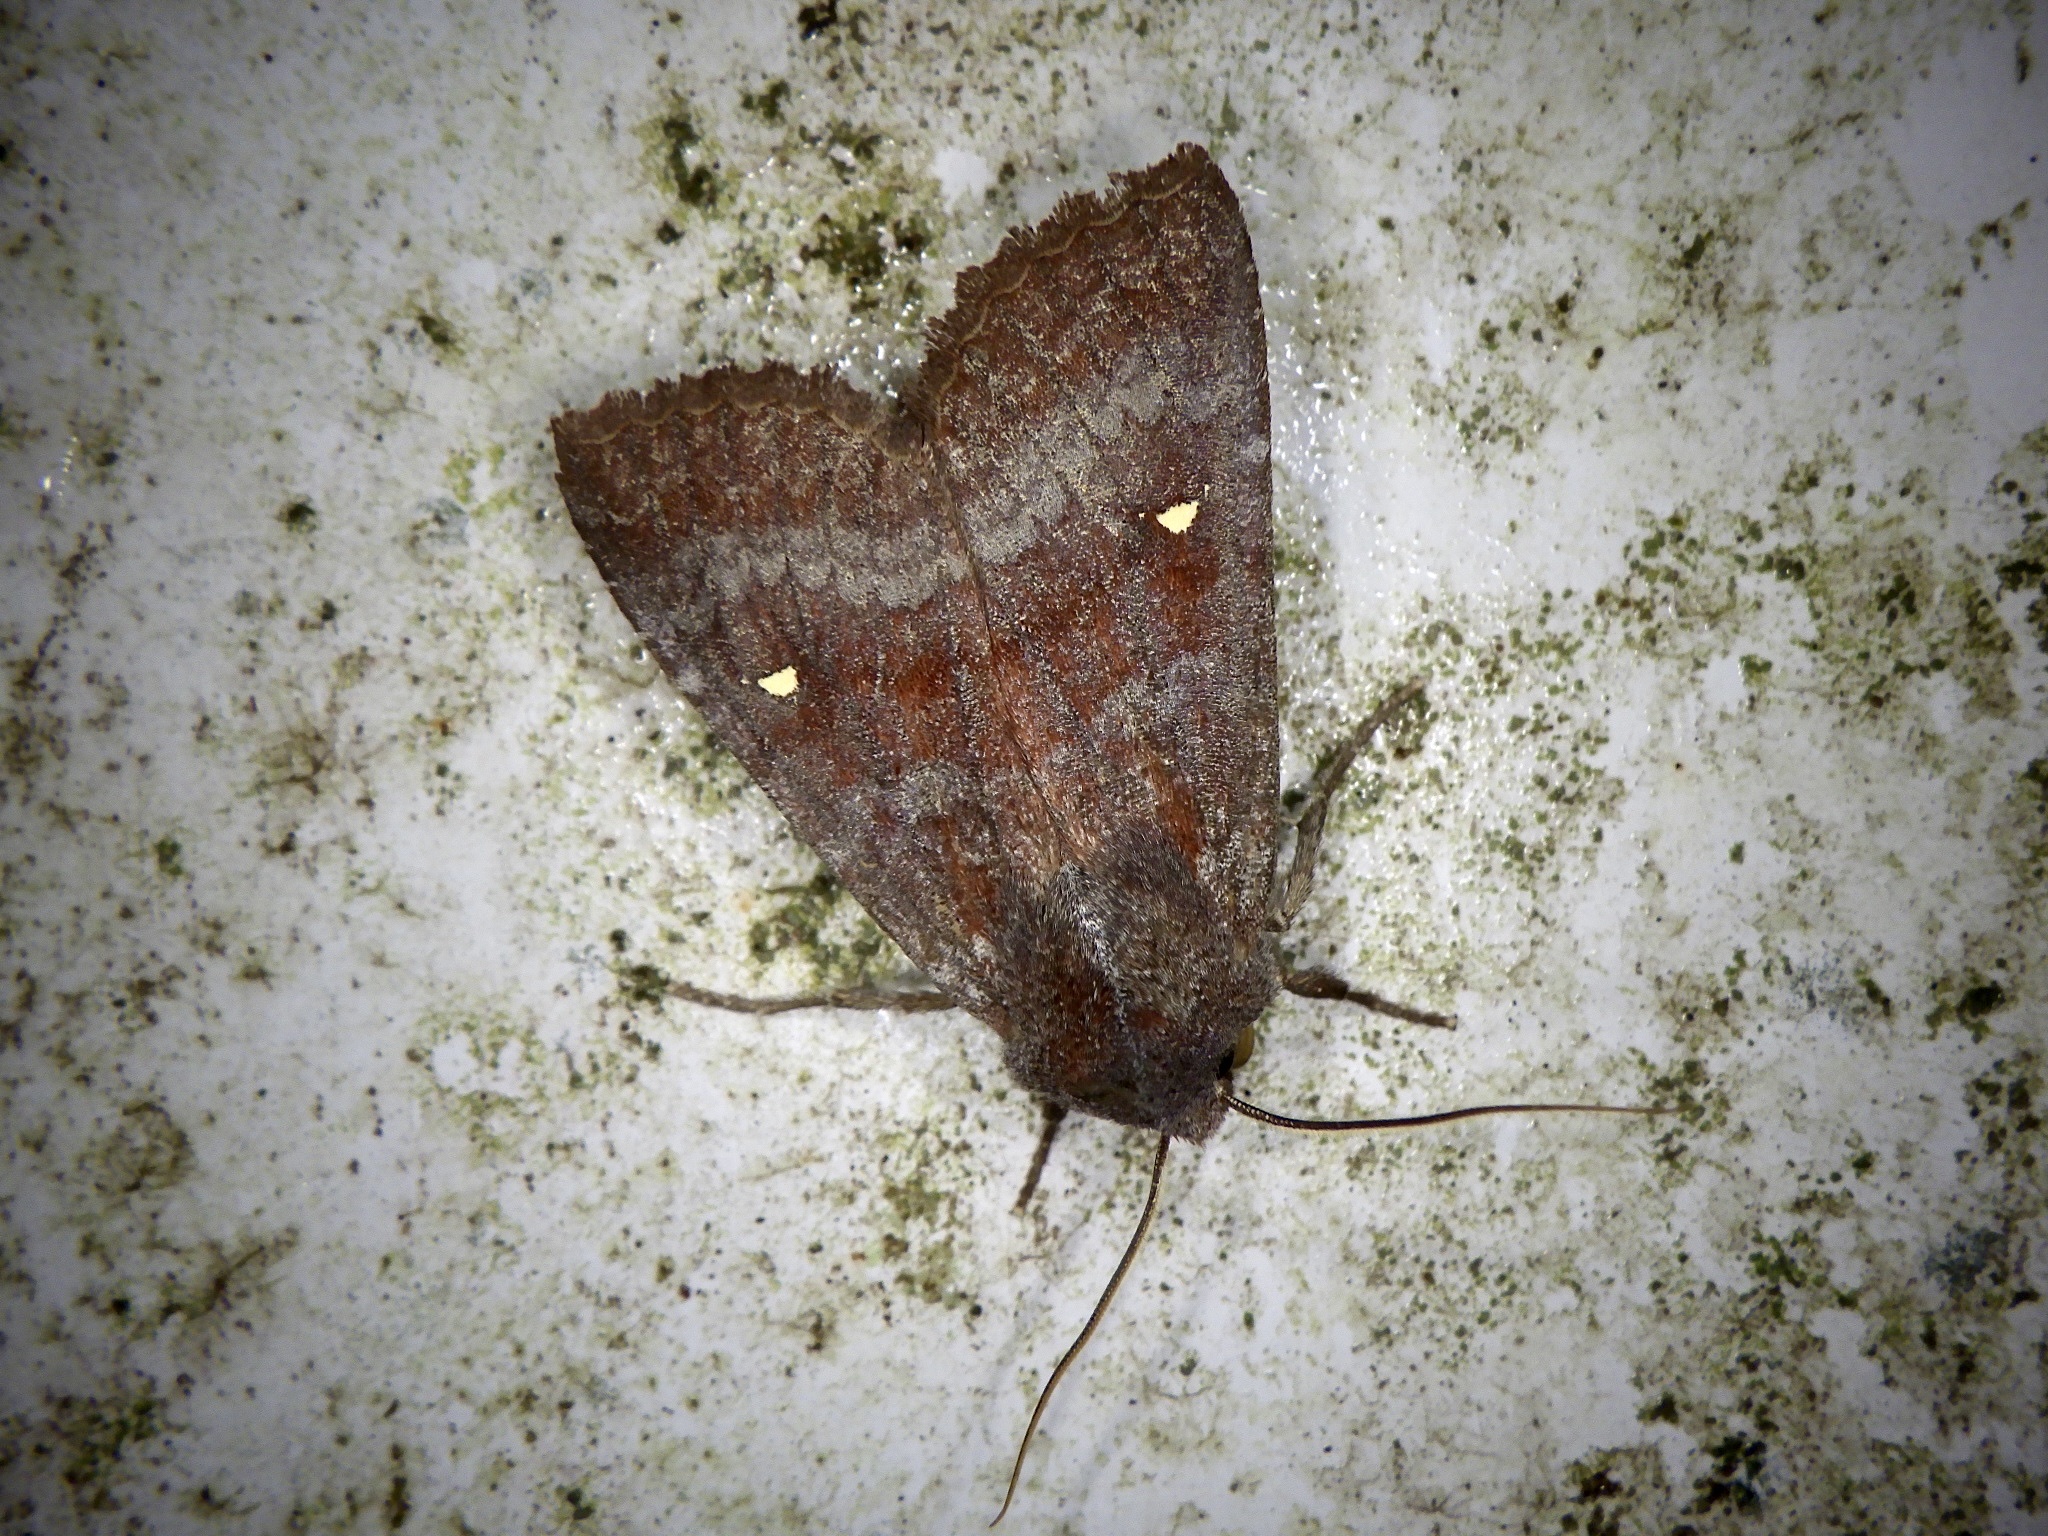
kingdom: Animalia
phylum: Arthropoda
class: Insecta
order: Lepidoptera
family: Noctuidae
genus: Eupsilia
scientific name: Eupsilia unipuncta
